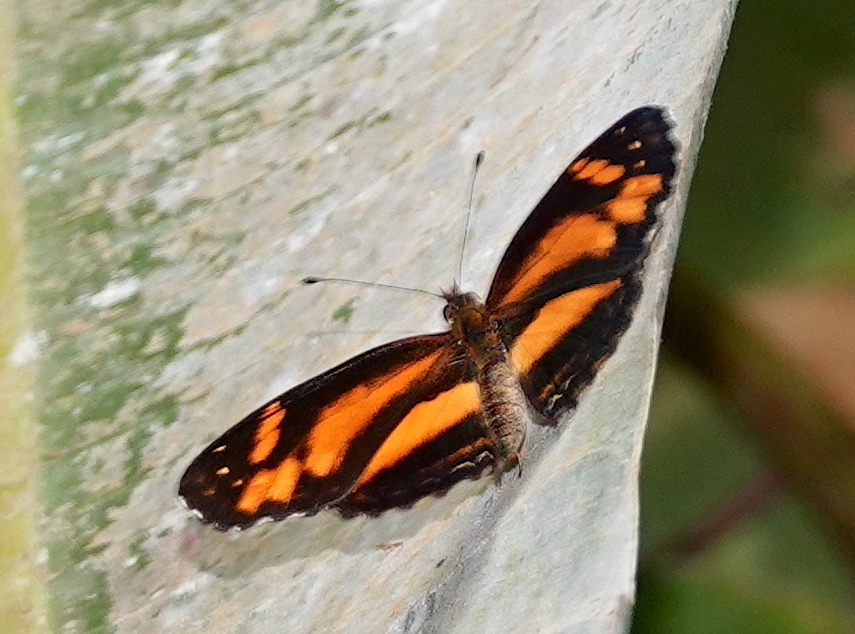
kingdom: Animalia
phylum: Arthropoda
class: Insecta
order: Lepidoptera
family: Nymphalidae
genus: Castilia
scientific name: Castilia eranites
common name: Smudged crescent
